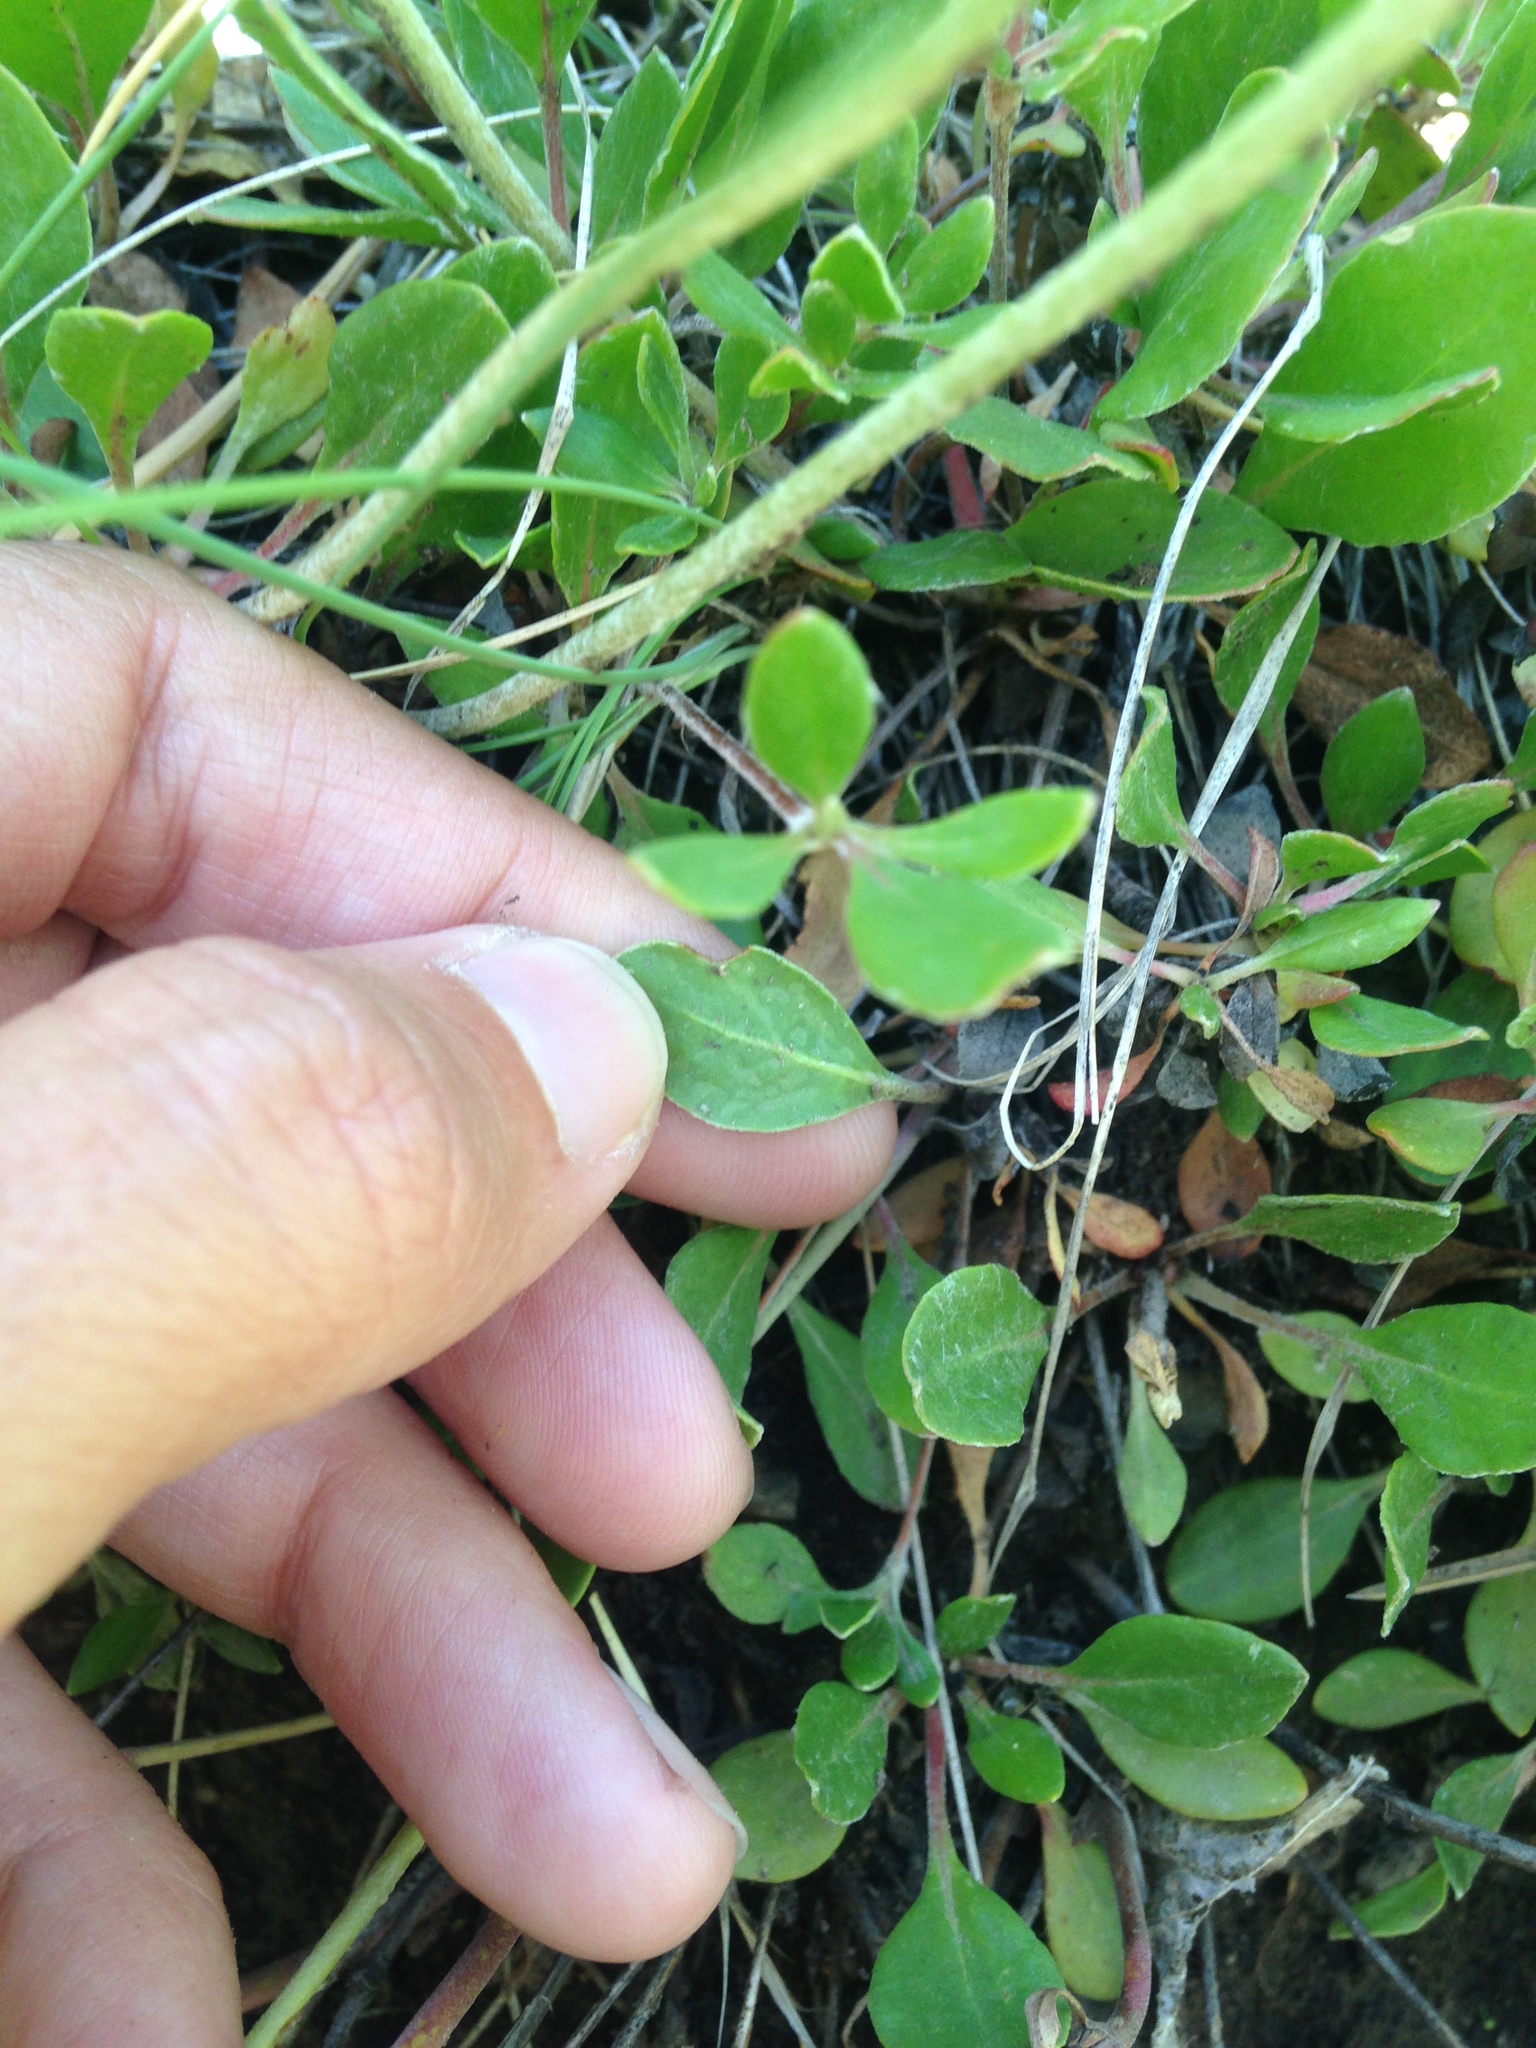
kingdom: Plantae
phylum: Tracheophyta
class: Magnoliopsida
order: Caryophyllales
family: Polygonaceae
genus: Eriogonum
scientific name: Eriogonum umbellatum
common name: Sulfur-buckwheat
